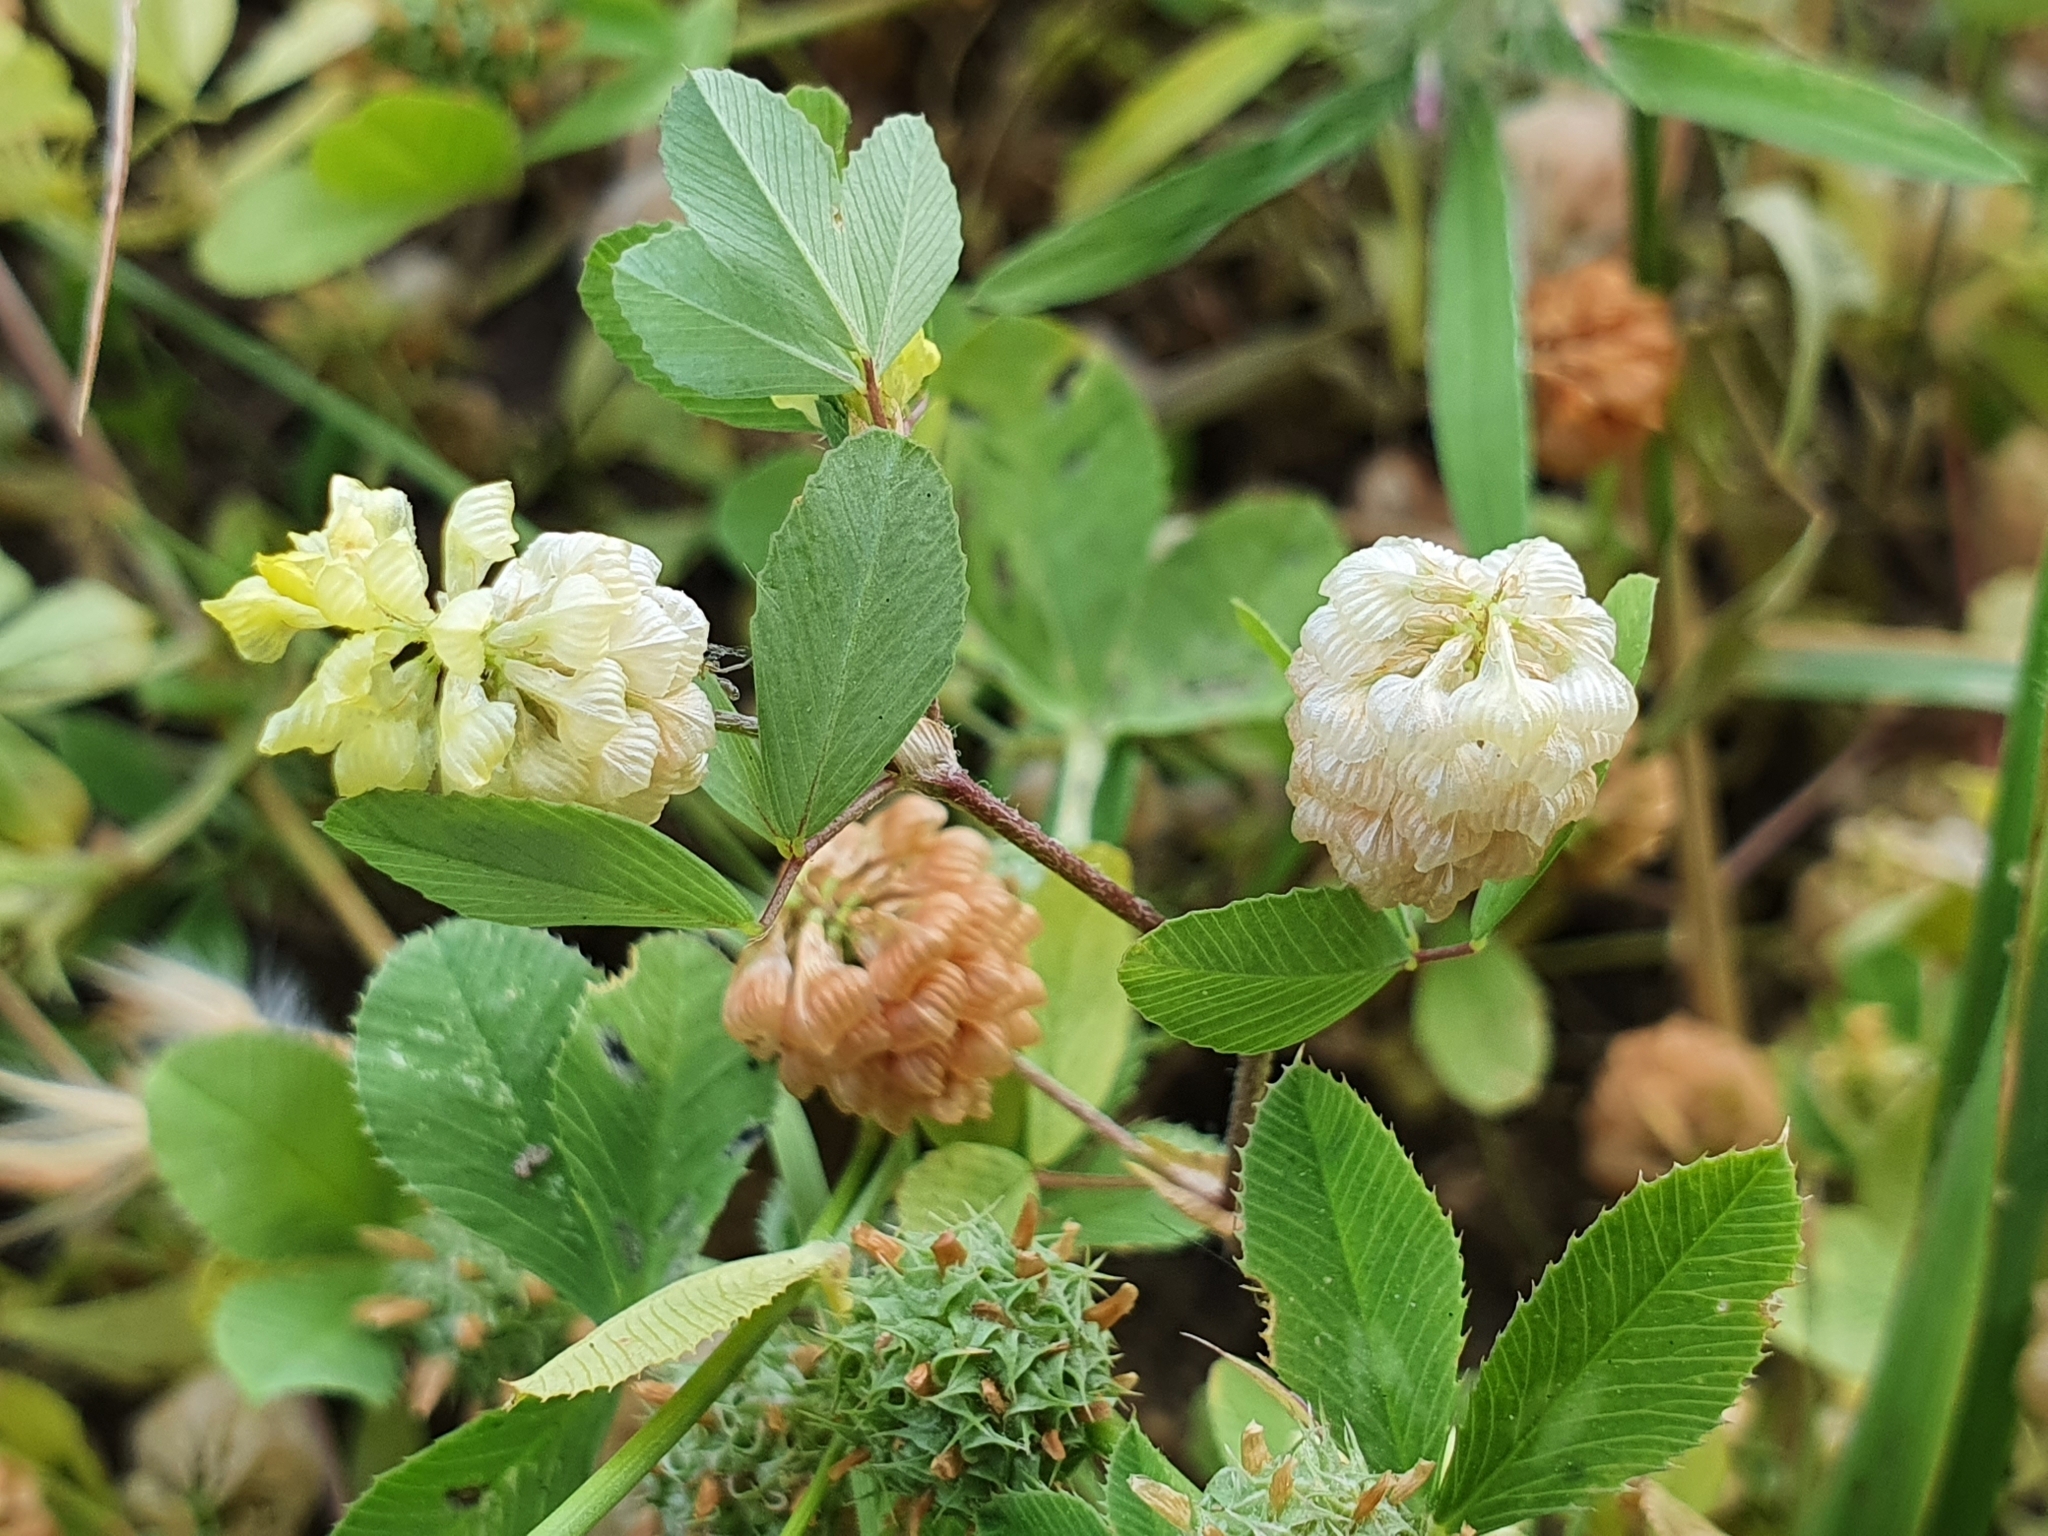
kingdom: Plantae
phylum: Tracheophyta
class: Magnoliopsida
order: Fabales
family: Fabaceae
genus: Trifolium
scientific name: Trifolium campestre
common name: Field clover
